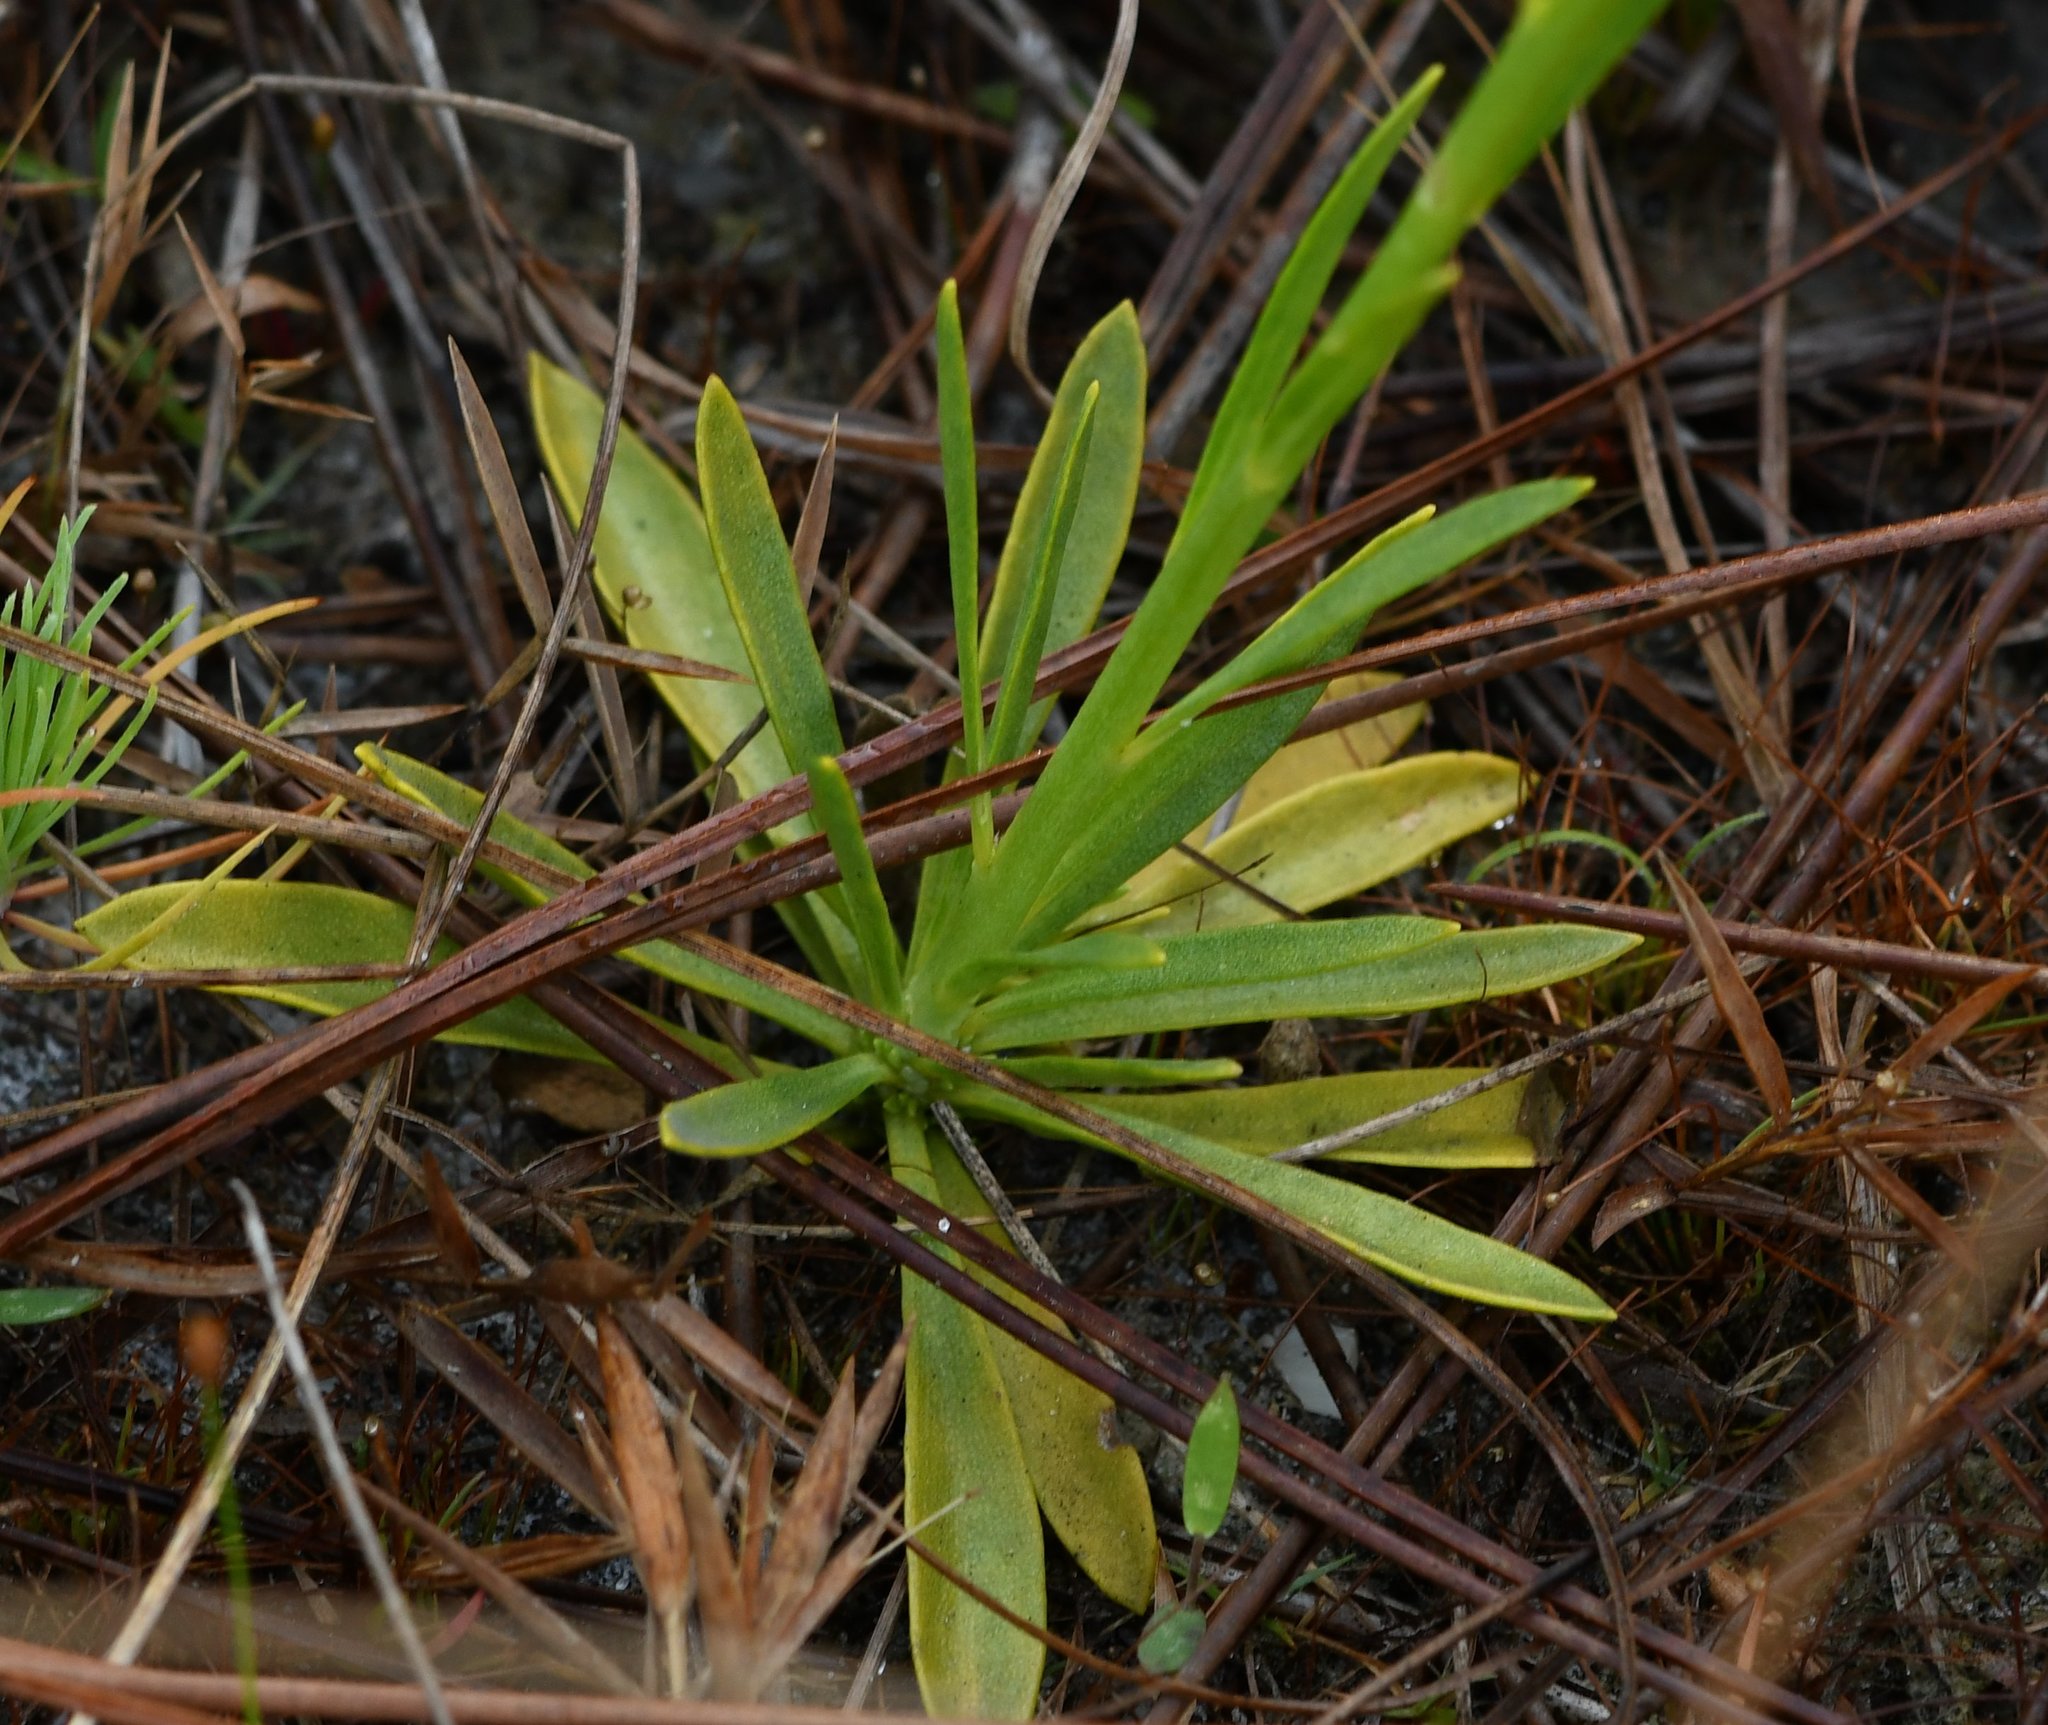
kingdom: Plantae
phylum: Tracheophyta
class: Magnoliopsida
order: Fabales
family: Polygalaceae
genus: Polygala
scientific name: Polygala rugelii
